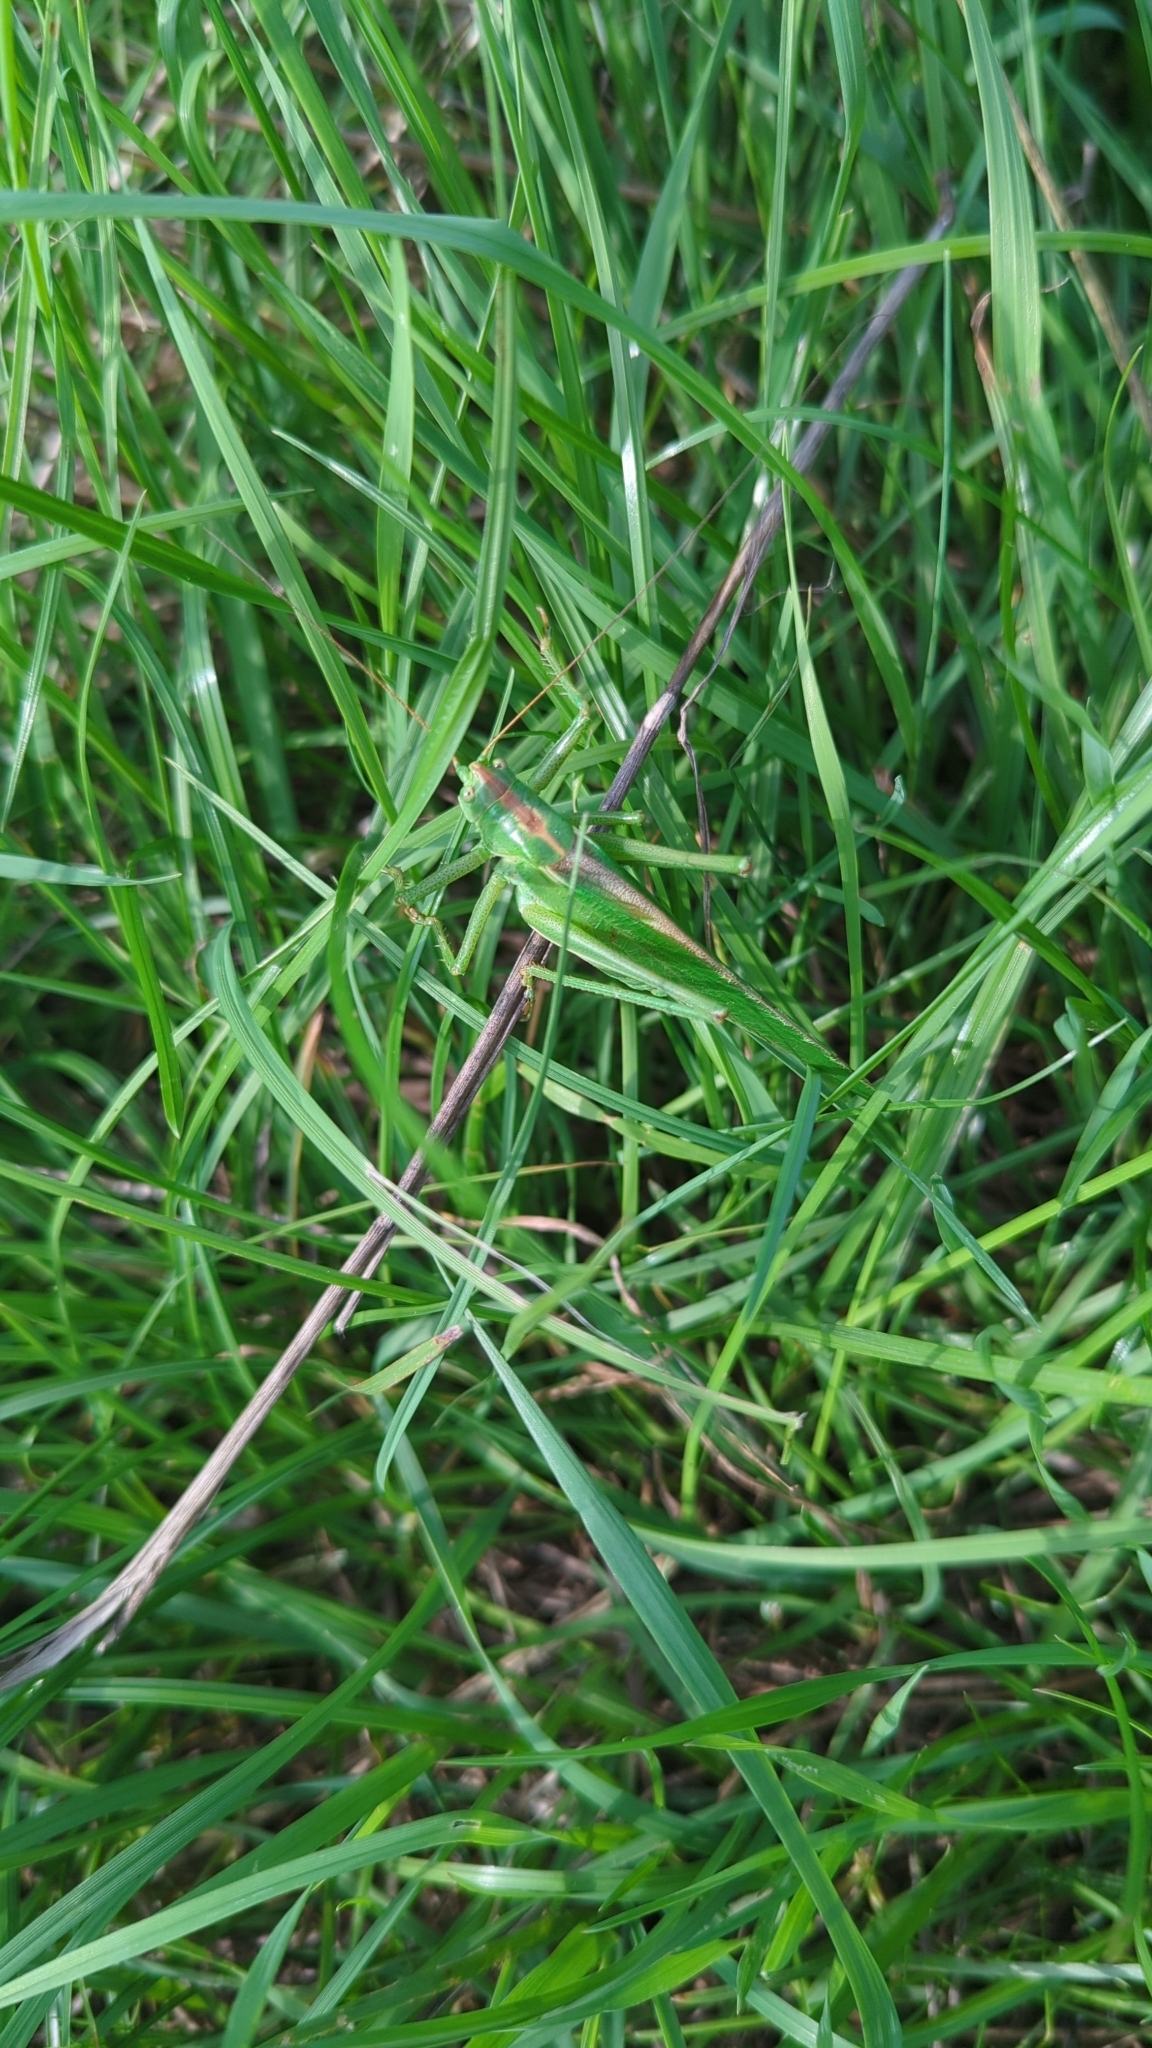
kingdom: Animalia
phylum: Arthropoda
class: Insecta
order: Orthoptera
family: Tettigoniidae
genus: Tettigonia
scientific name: Tettigonia viridissima
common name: Great green bush-cricket
